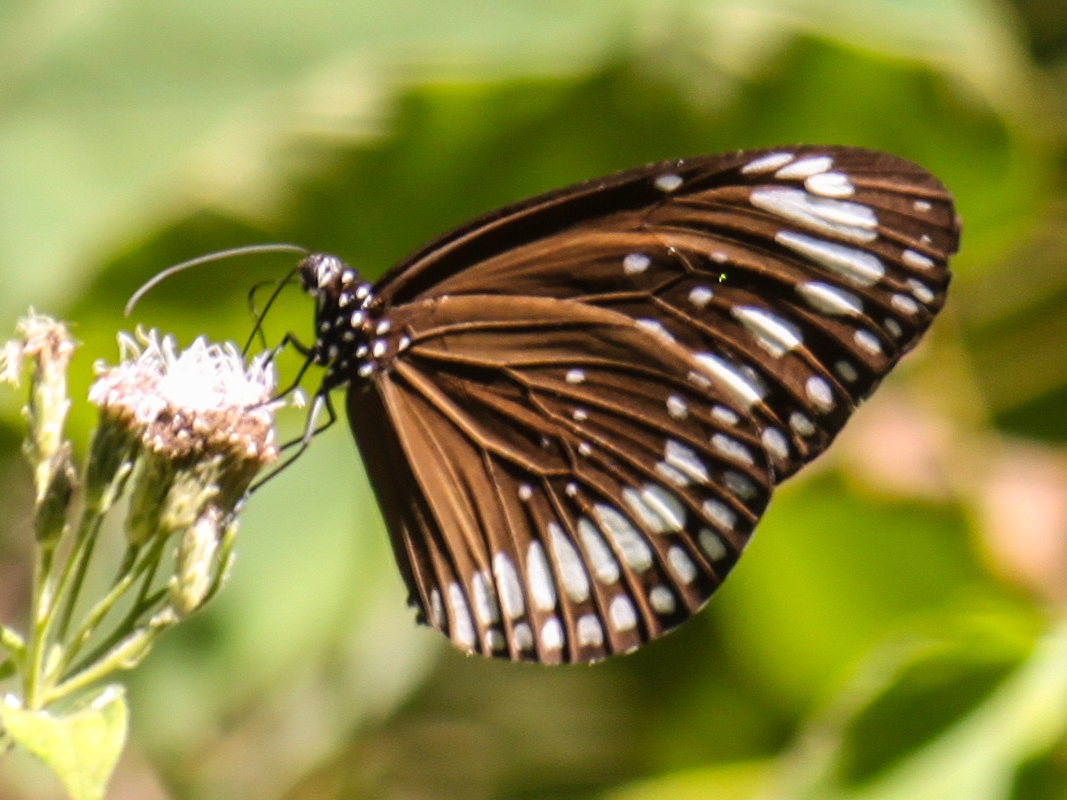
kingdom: Animalia
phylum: Arthropoda
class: Insecta
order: Lepidoptera
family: Nymphalidae
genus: Euploea
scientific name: Euploea crameri
